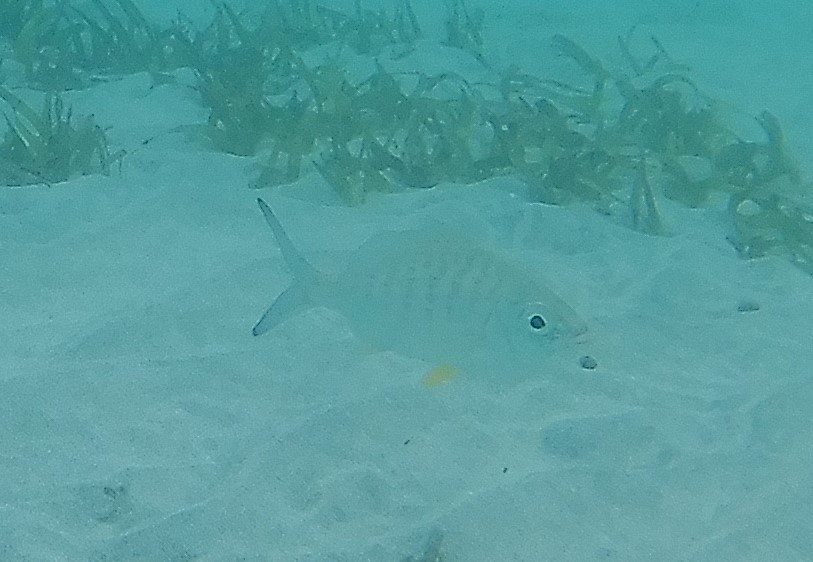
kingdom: Animalia
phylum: Chordata
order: Perciformes
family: Gerreidae
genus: Gerres
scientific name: Gerres cinereus
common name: Hedow
